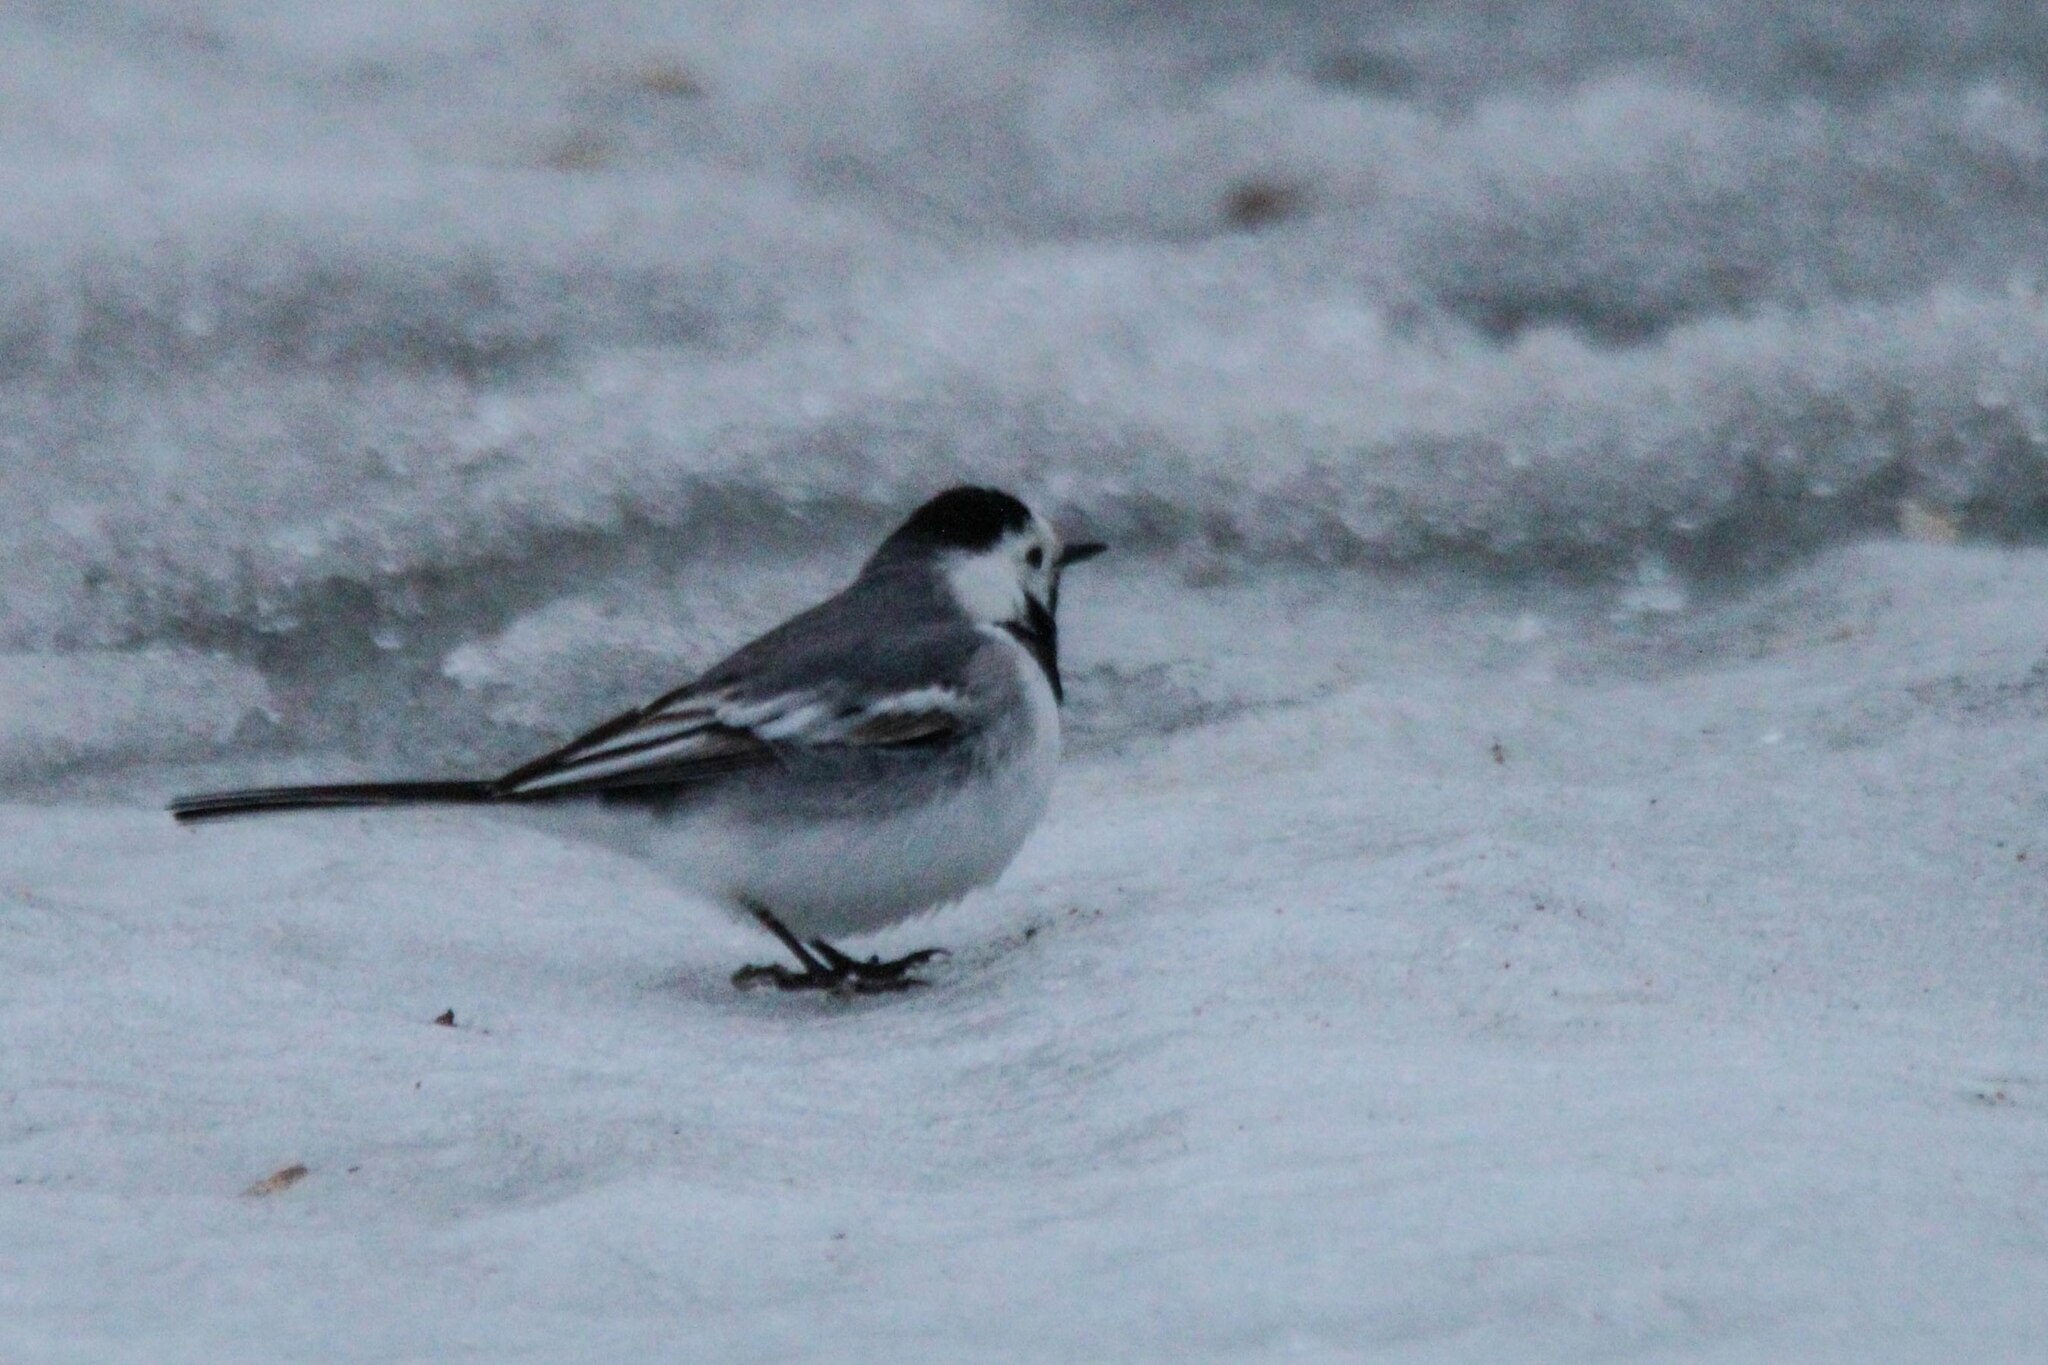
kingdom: Animalia
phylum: Chordata
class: Aves
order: Passeriformes
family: Motacillidae
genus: Motacilla
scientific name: Motacilla alba
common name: White wagtail
